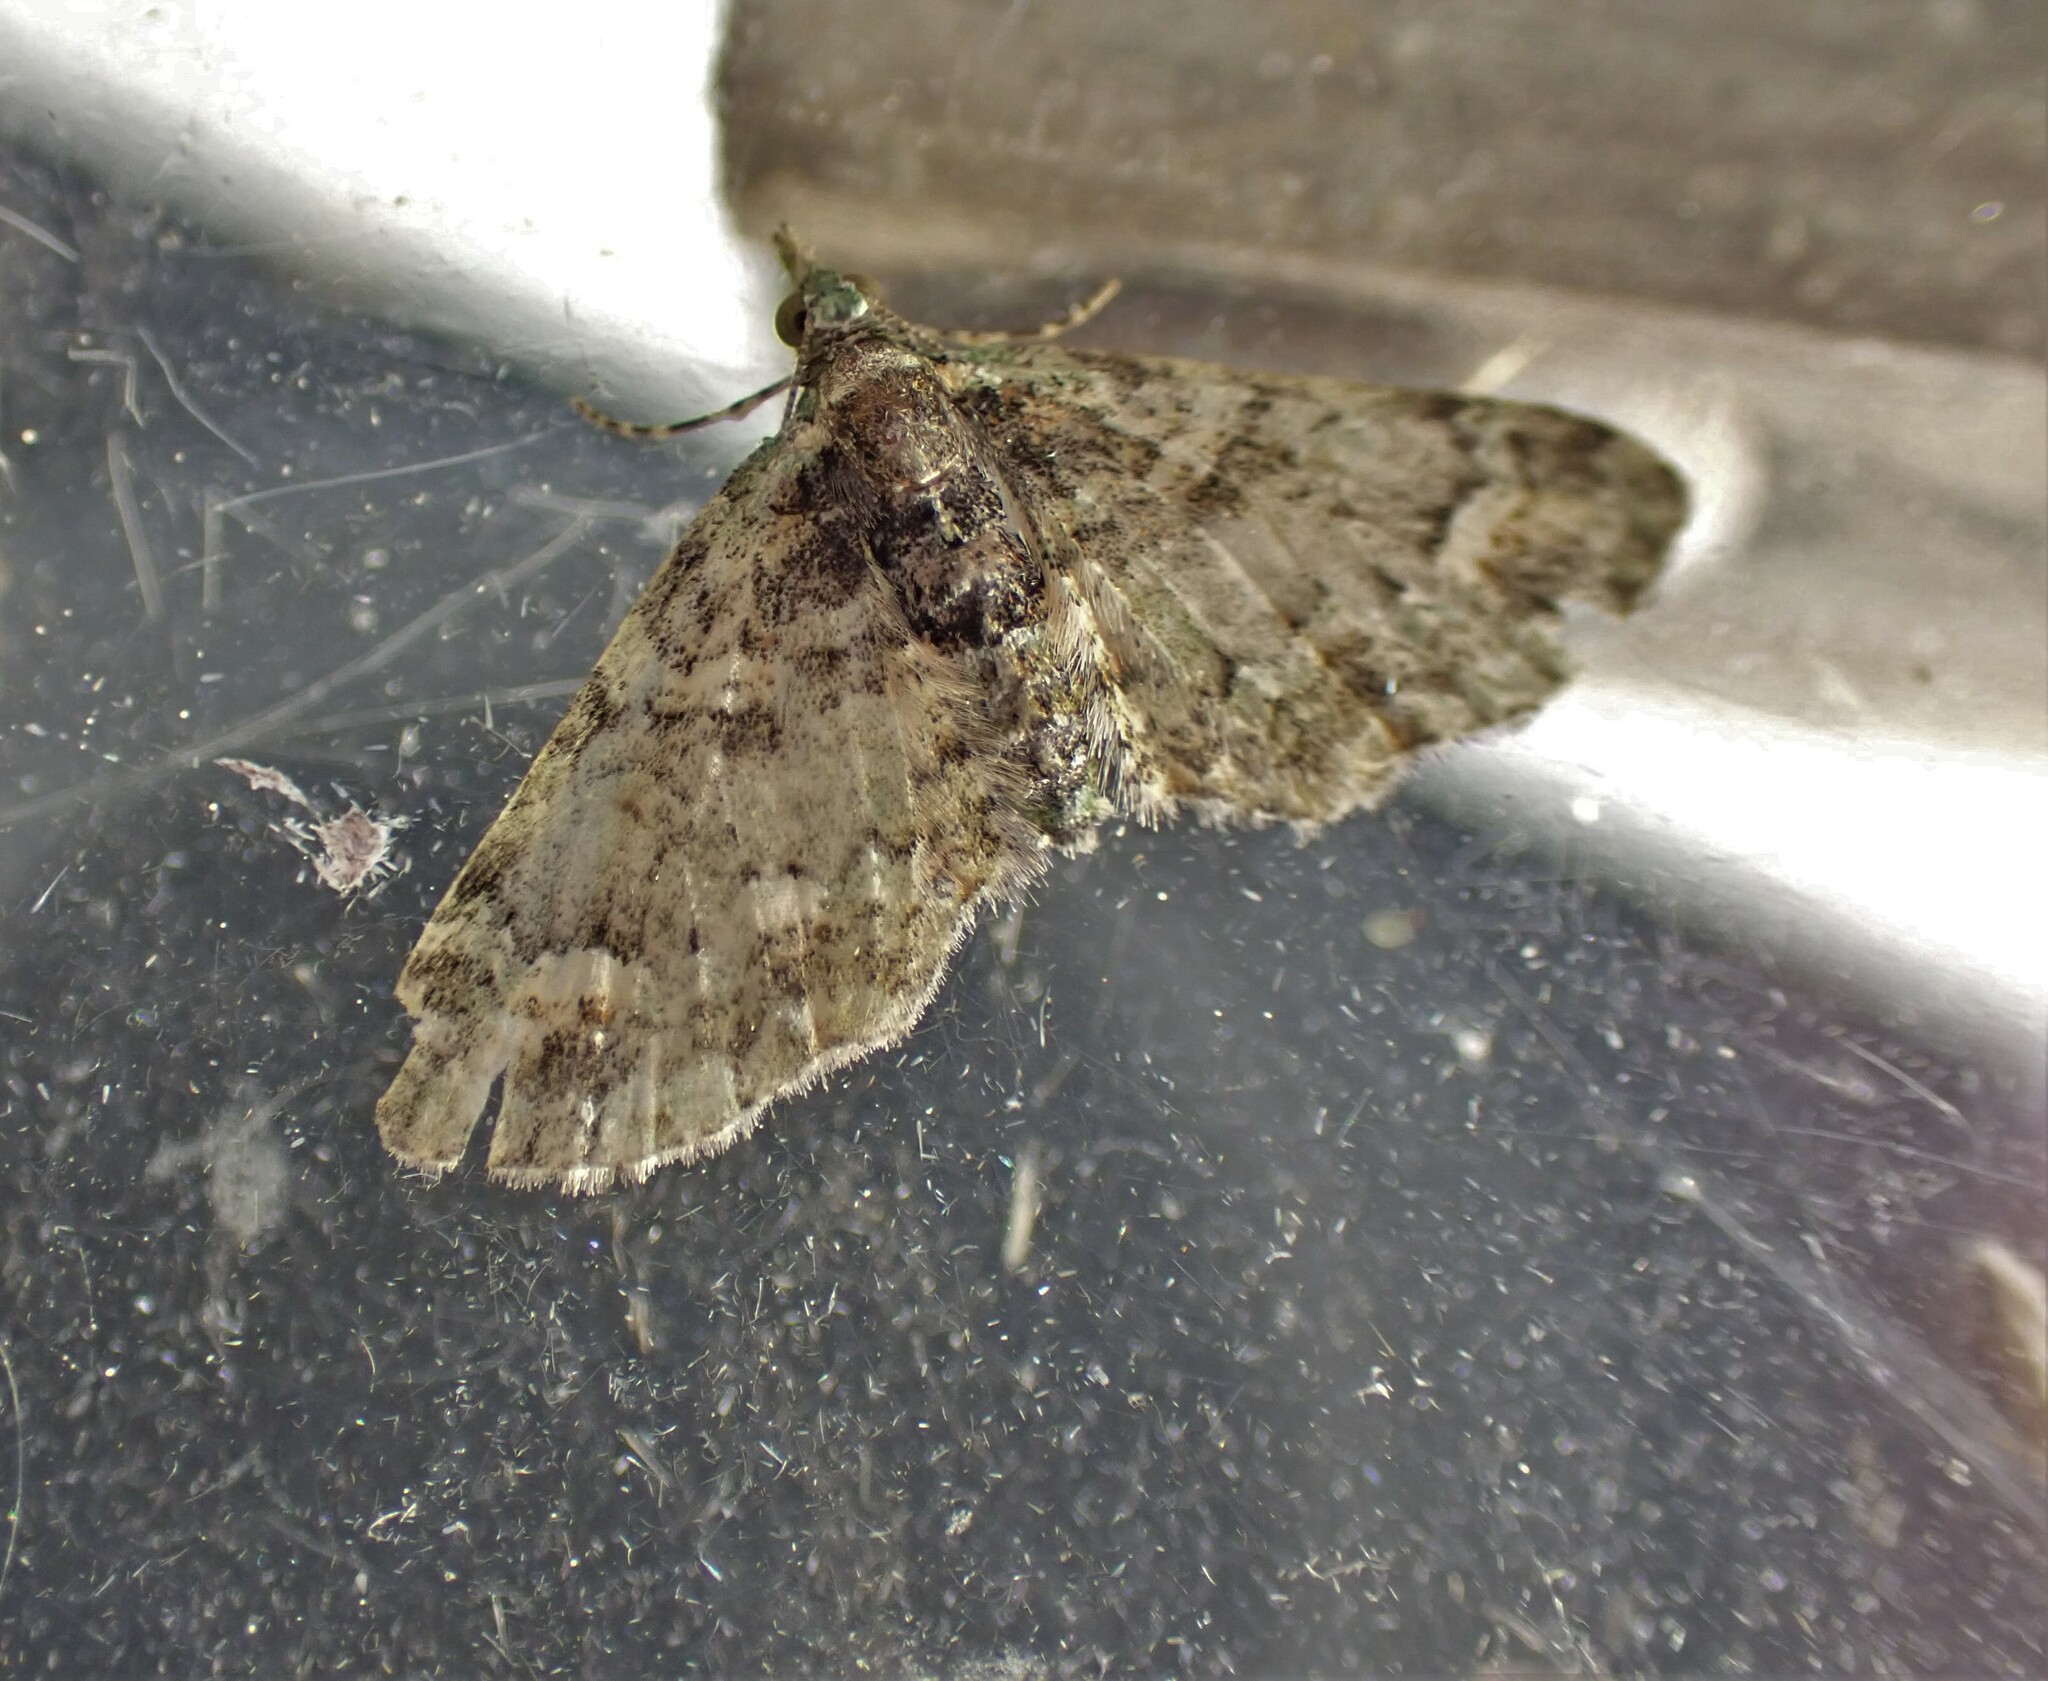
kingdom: Animalia
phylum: Arthropoda
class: Insecta
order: Lepidoptera
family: Geometridae
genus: Idaea
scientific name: Idaea mutanda
